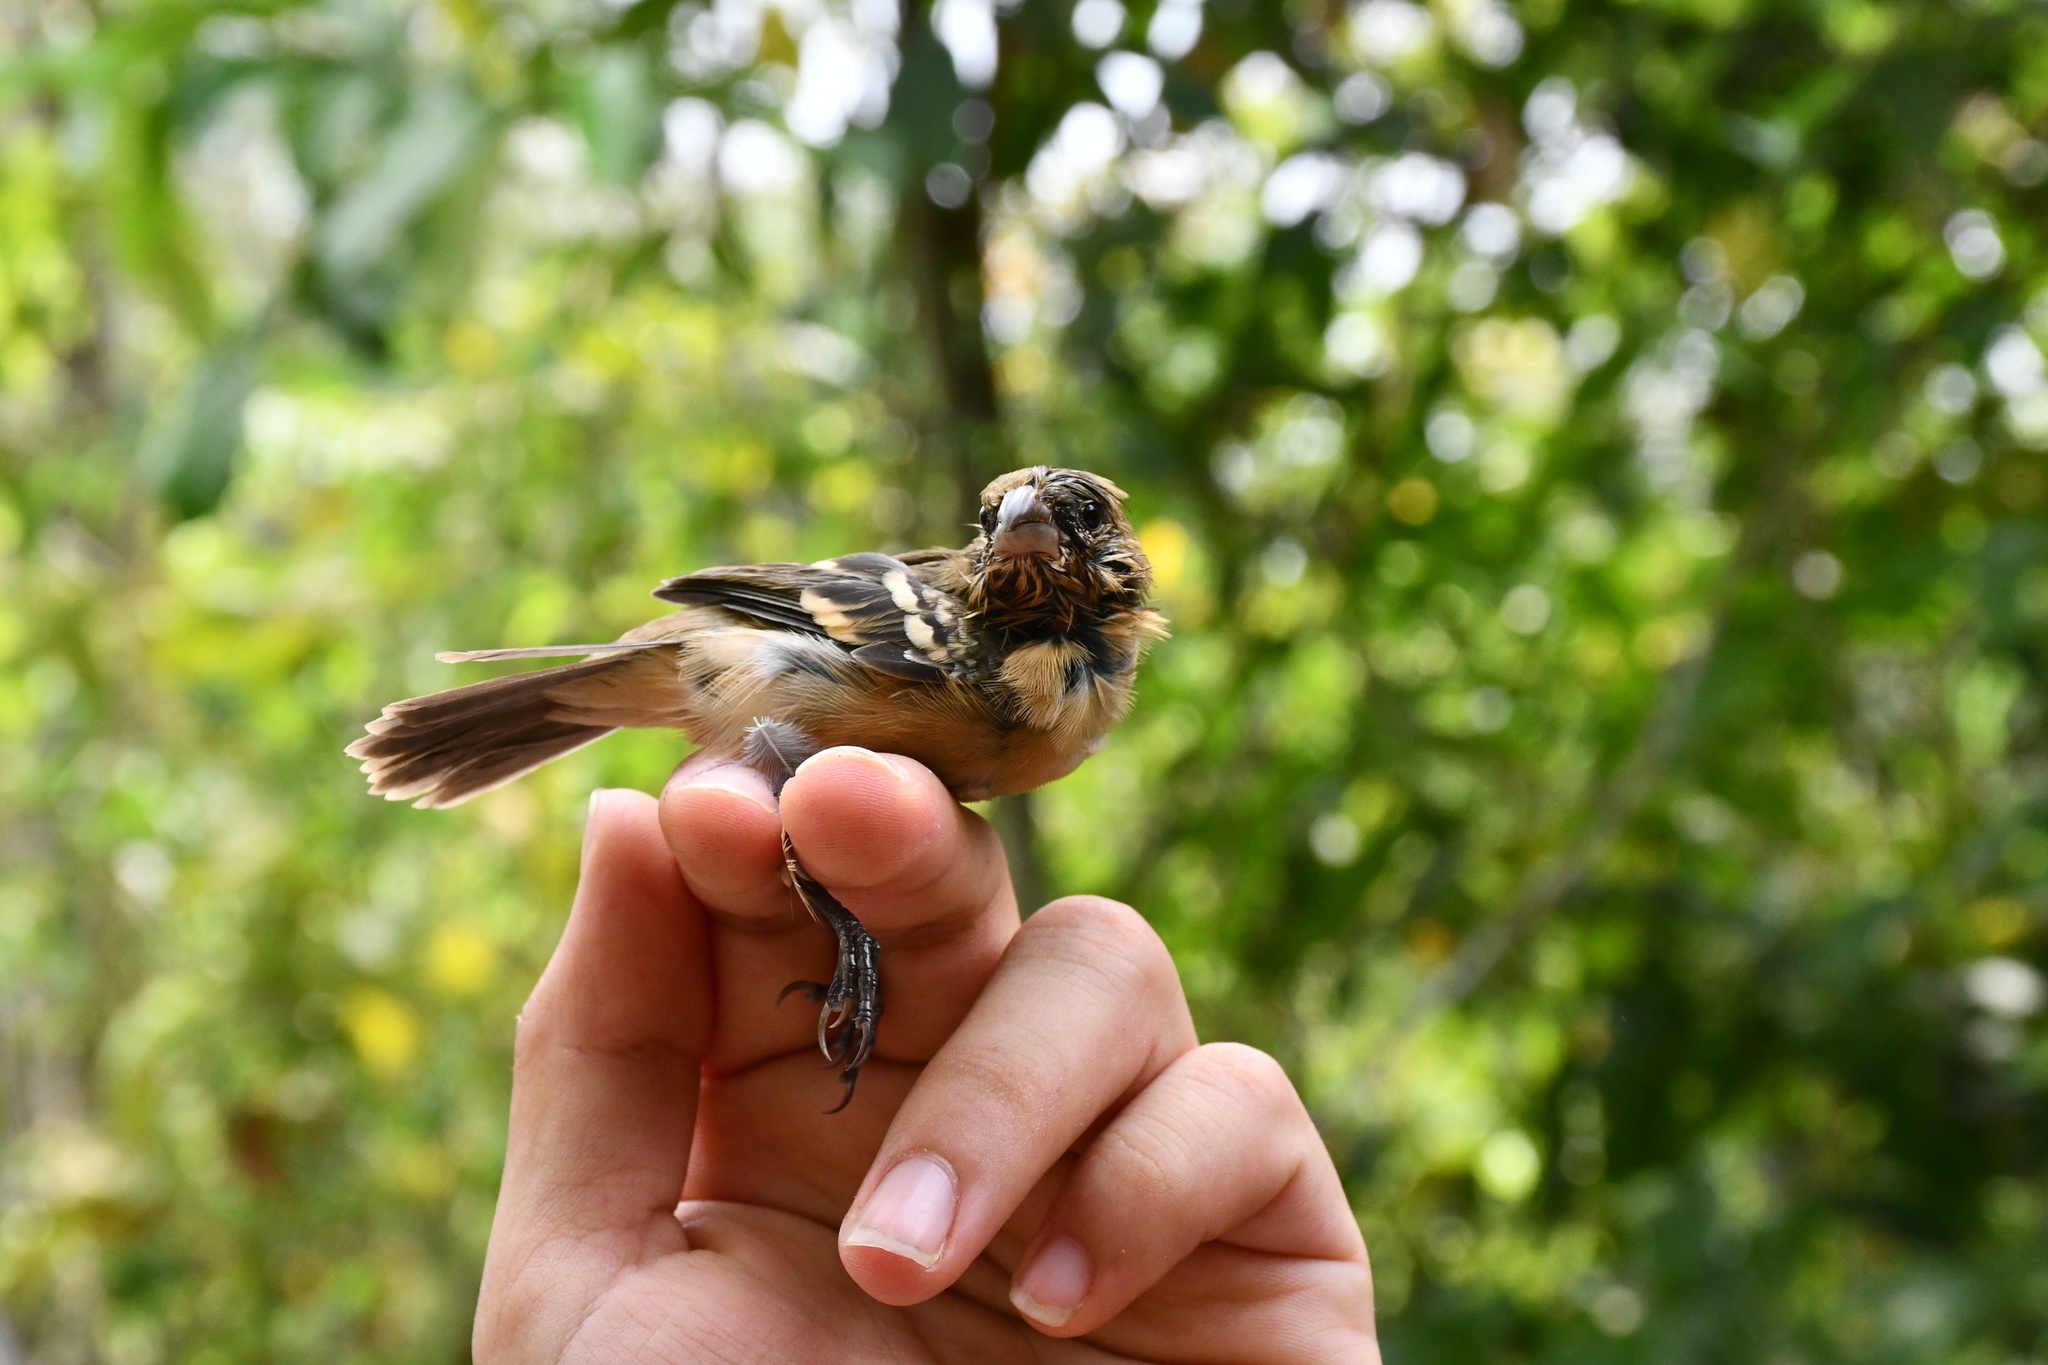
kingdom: Animalia
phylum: Chordata
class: Aves
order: Passeriformes
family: Thraupidae
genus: Sporophila
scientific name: Sporophila morelleti
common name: Morelet's seedeater
